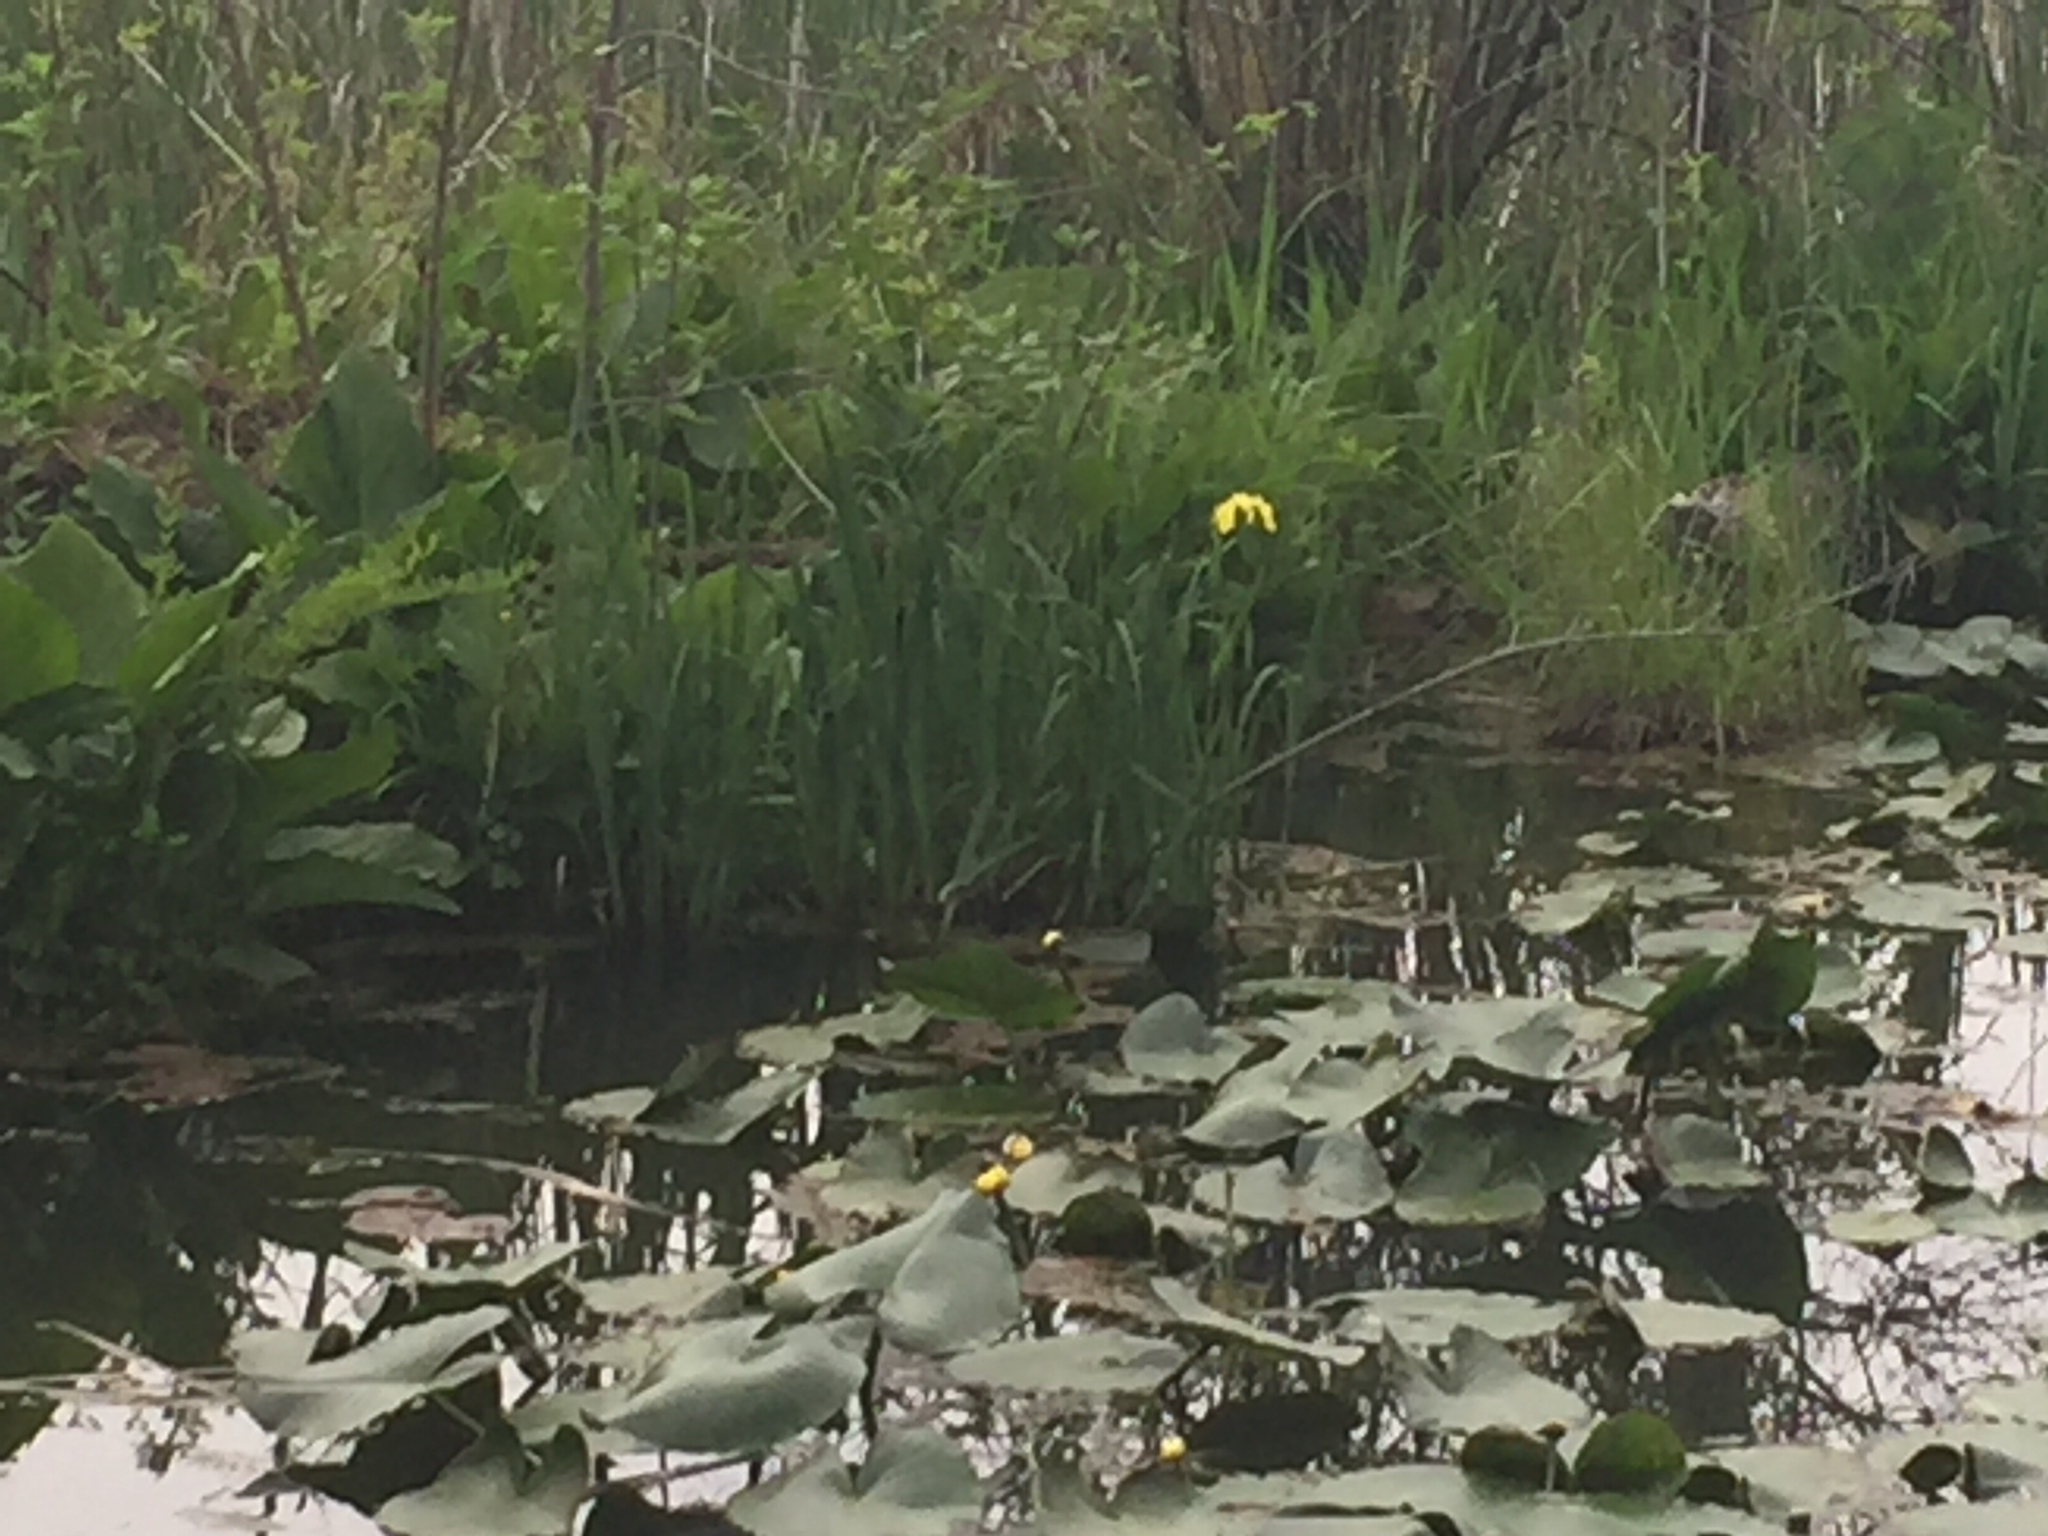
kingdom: Plantae
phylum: Tracheophyta
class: Liliopsida
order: Asparagales
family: Iridaceae
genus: Iris
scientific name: Iris pseudacorus
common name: Yellow flag
